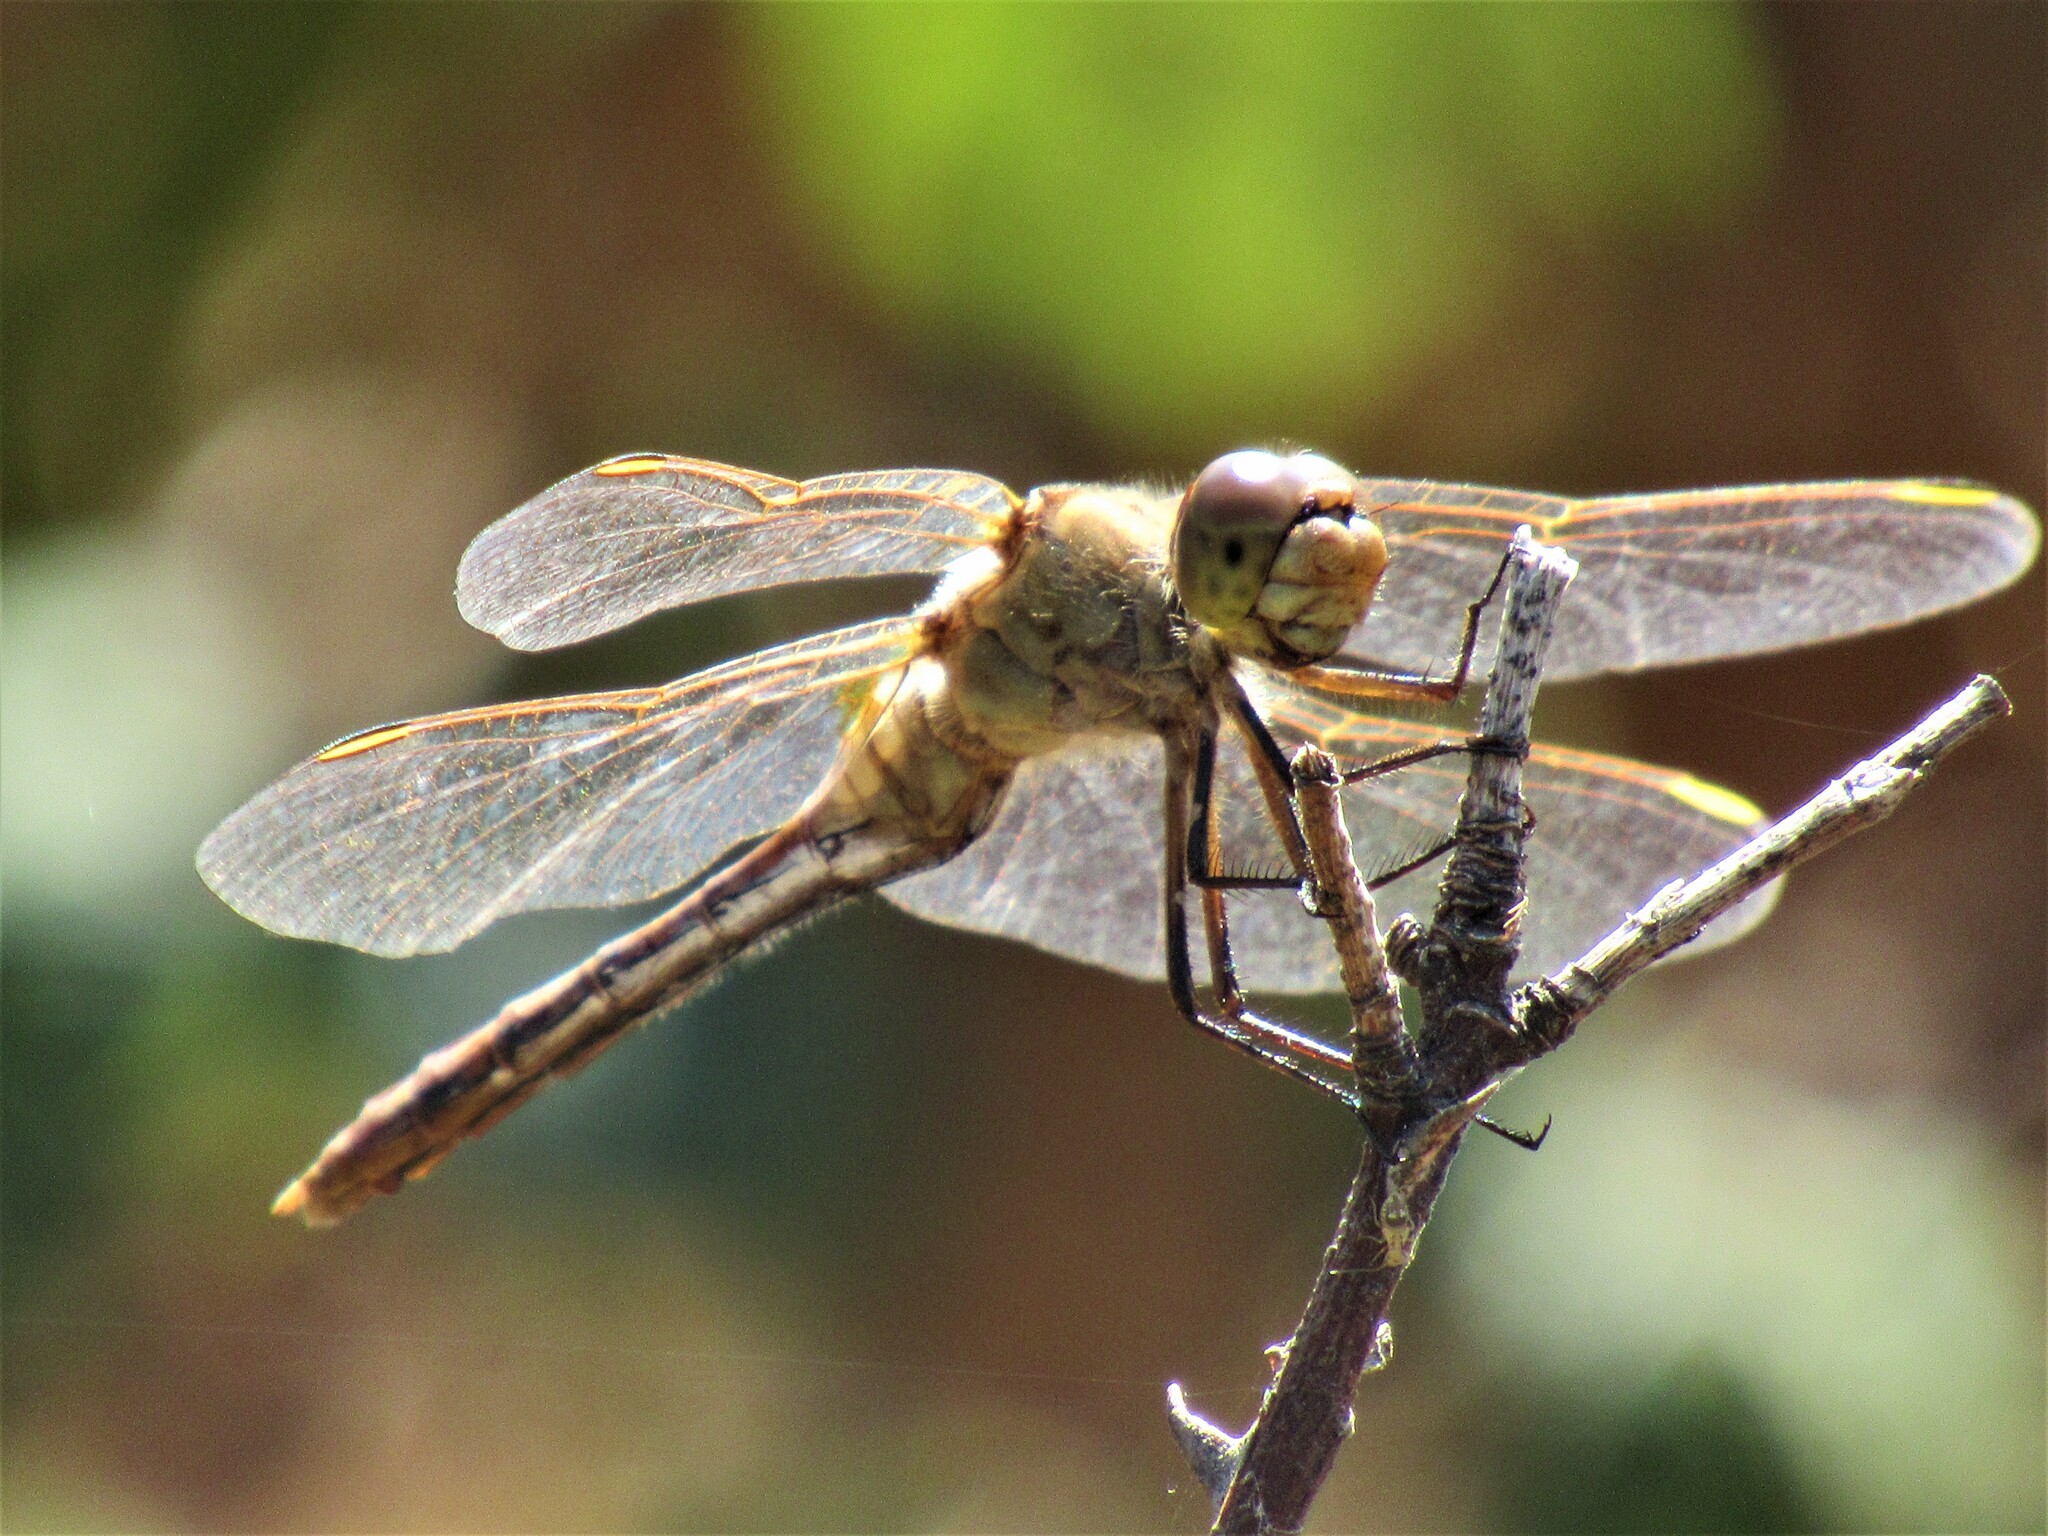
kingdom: Animalia
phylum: Arthropoda
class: Insecta
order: Odonata
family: Libellulidae
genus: Sympetrum
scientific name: Sympetrum costiferum
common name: Saffron-winged meadowhawk
